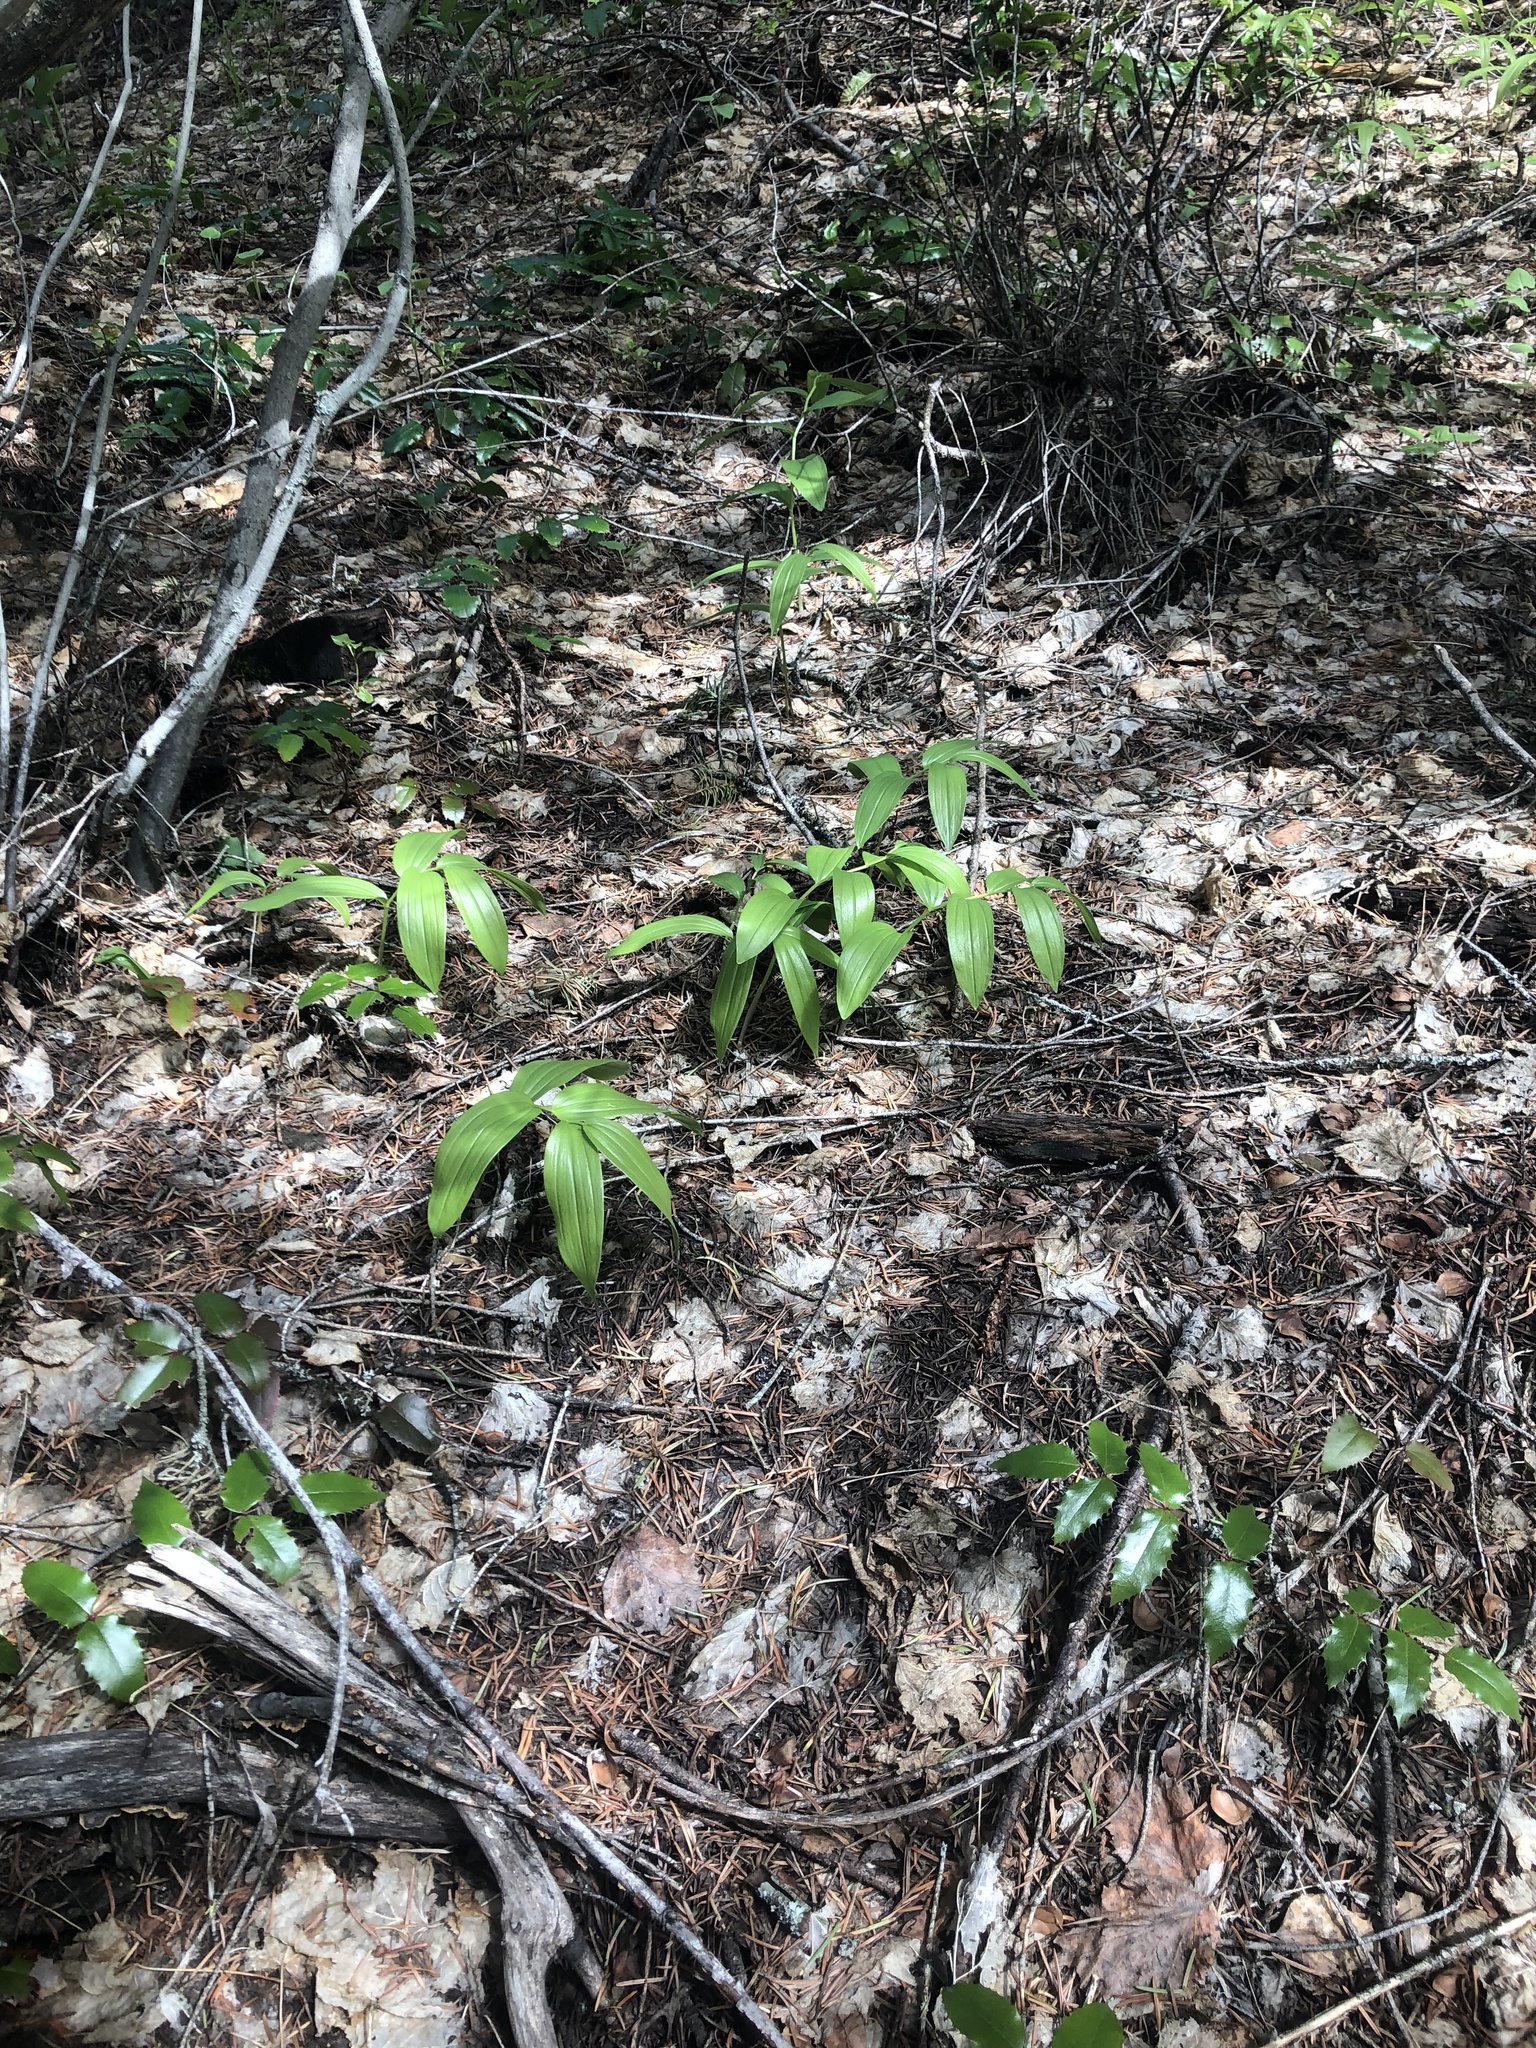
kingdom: Plantae
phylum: Tracheophyta
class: Liliopsida
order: Asparagales
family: Asparagaceae
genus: Maianthemum
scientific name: Maianthemum racemosum
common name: False spikenard
